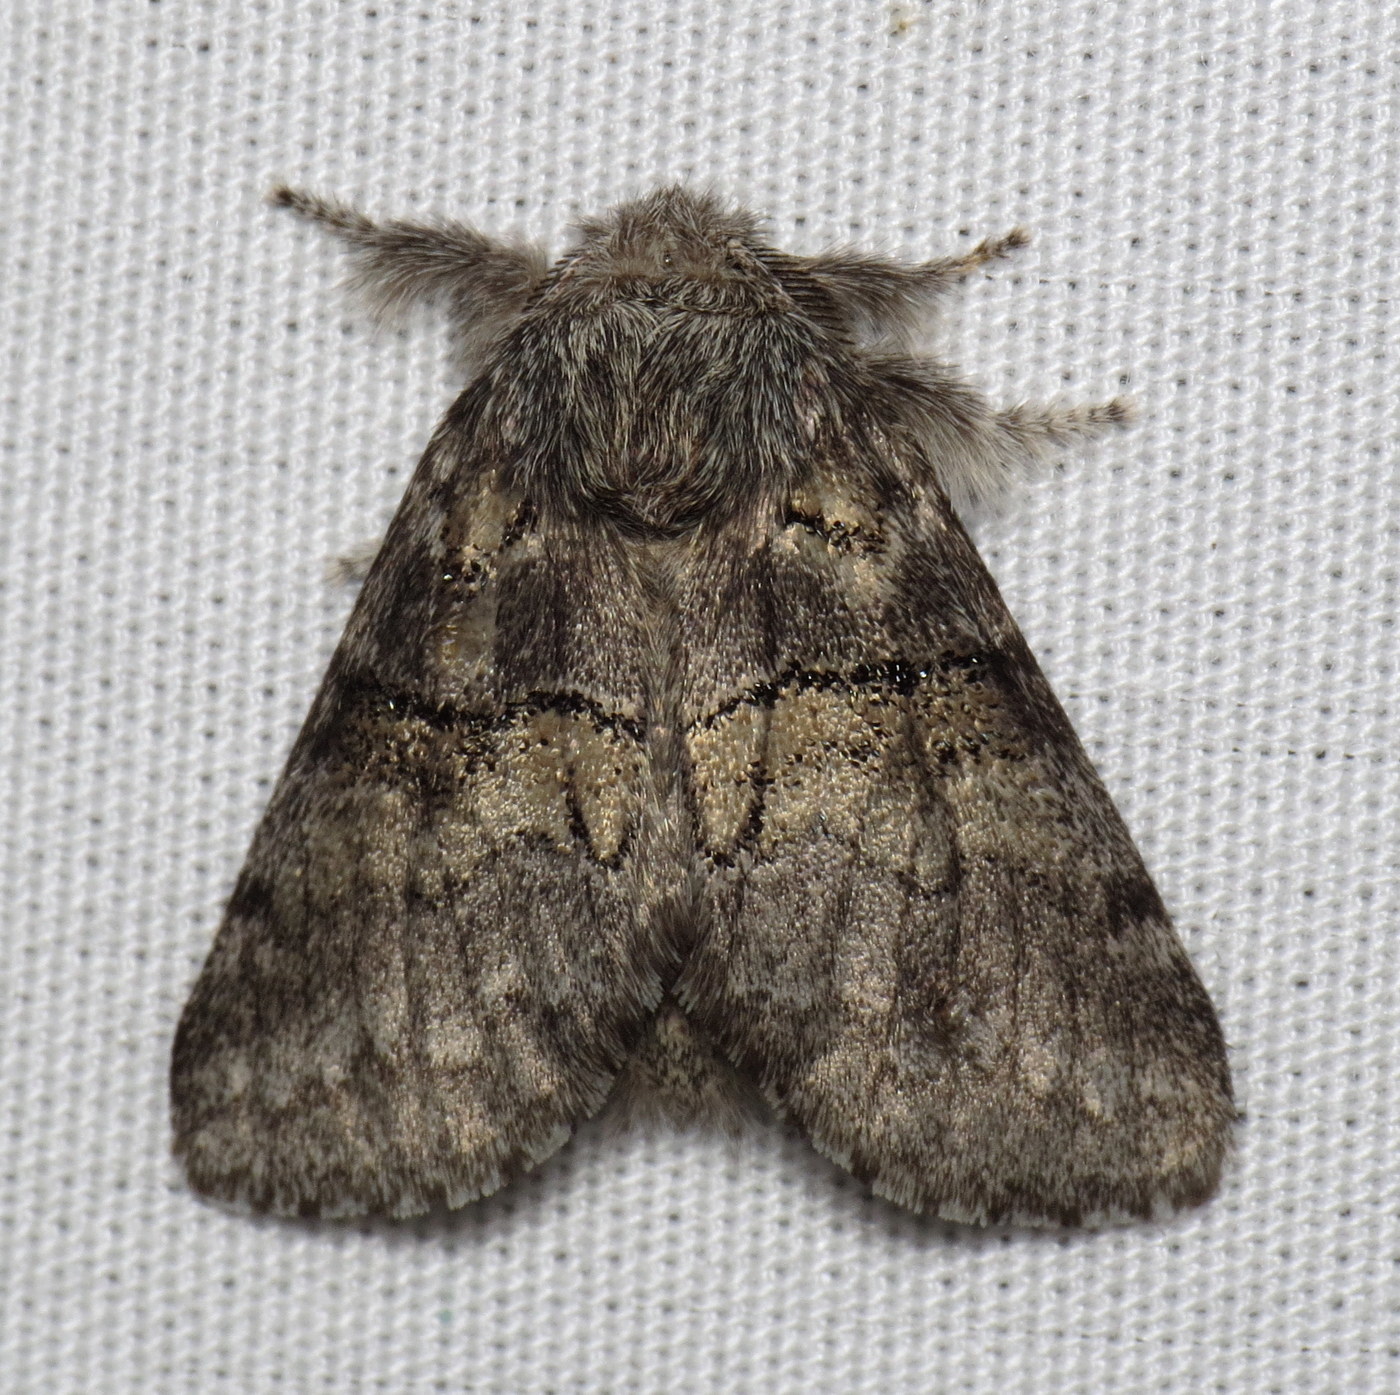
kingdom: Animalia
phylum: Arthropoda
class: Insecta
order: Lepidoptera
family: Notodontidae
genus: Gluphisia
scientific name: Gluphisia septentrionis
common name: Common gluphisia
